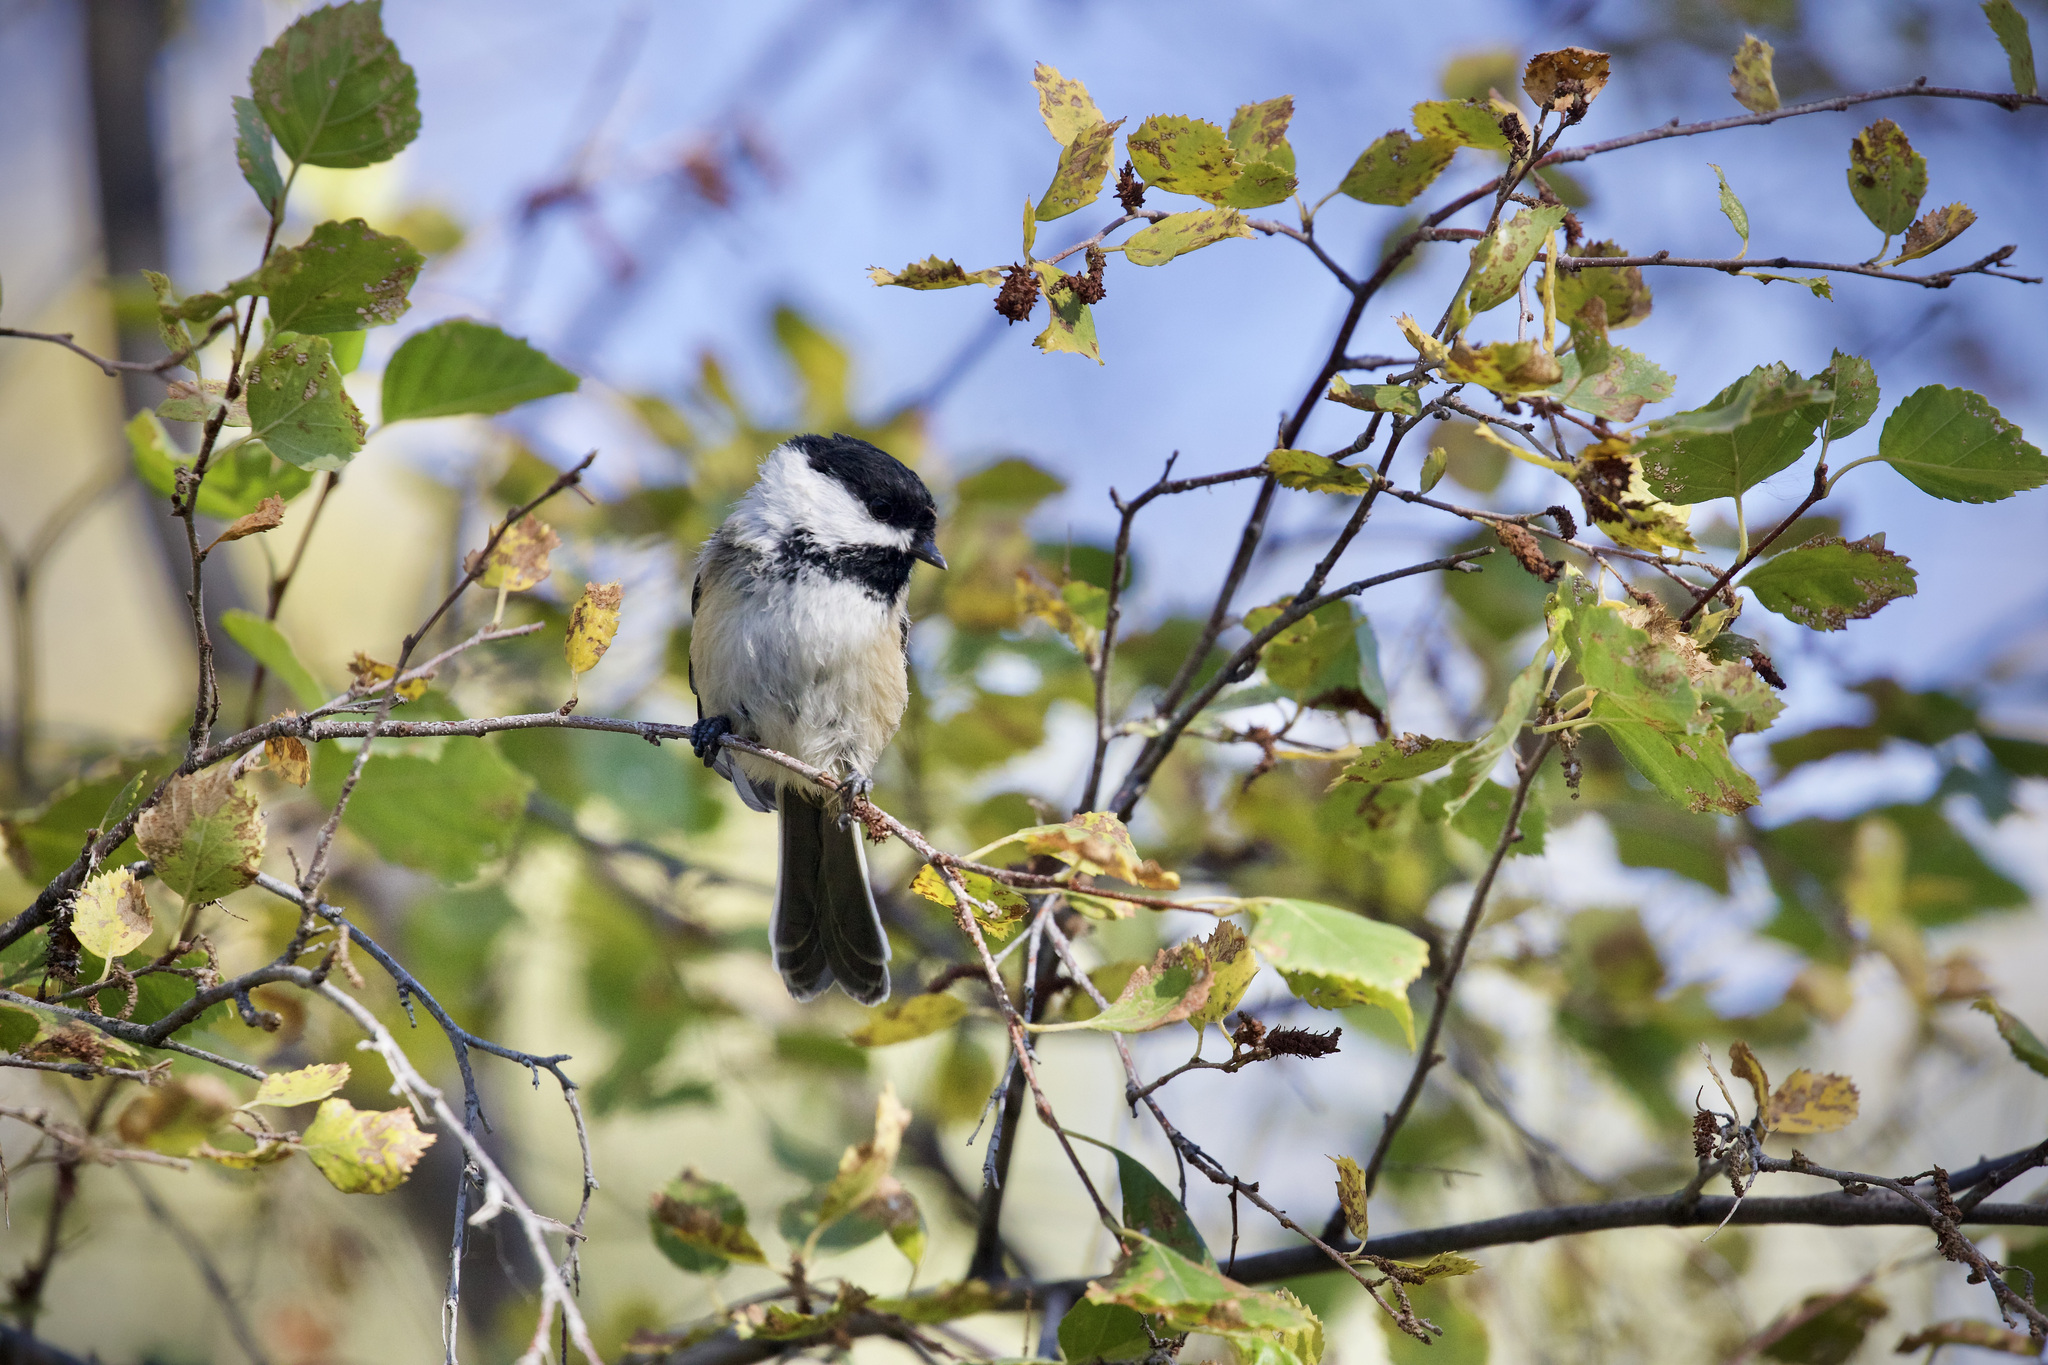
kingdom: Animalia
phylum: Chordata
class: Aves
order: Passeriformes
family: Paridae
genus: Poecile
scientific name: Poecile atricapillus
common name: Black-capped chickadee
